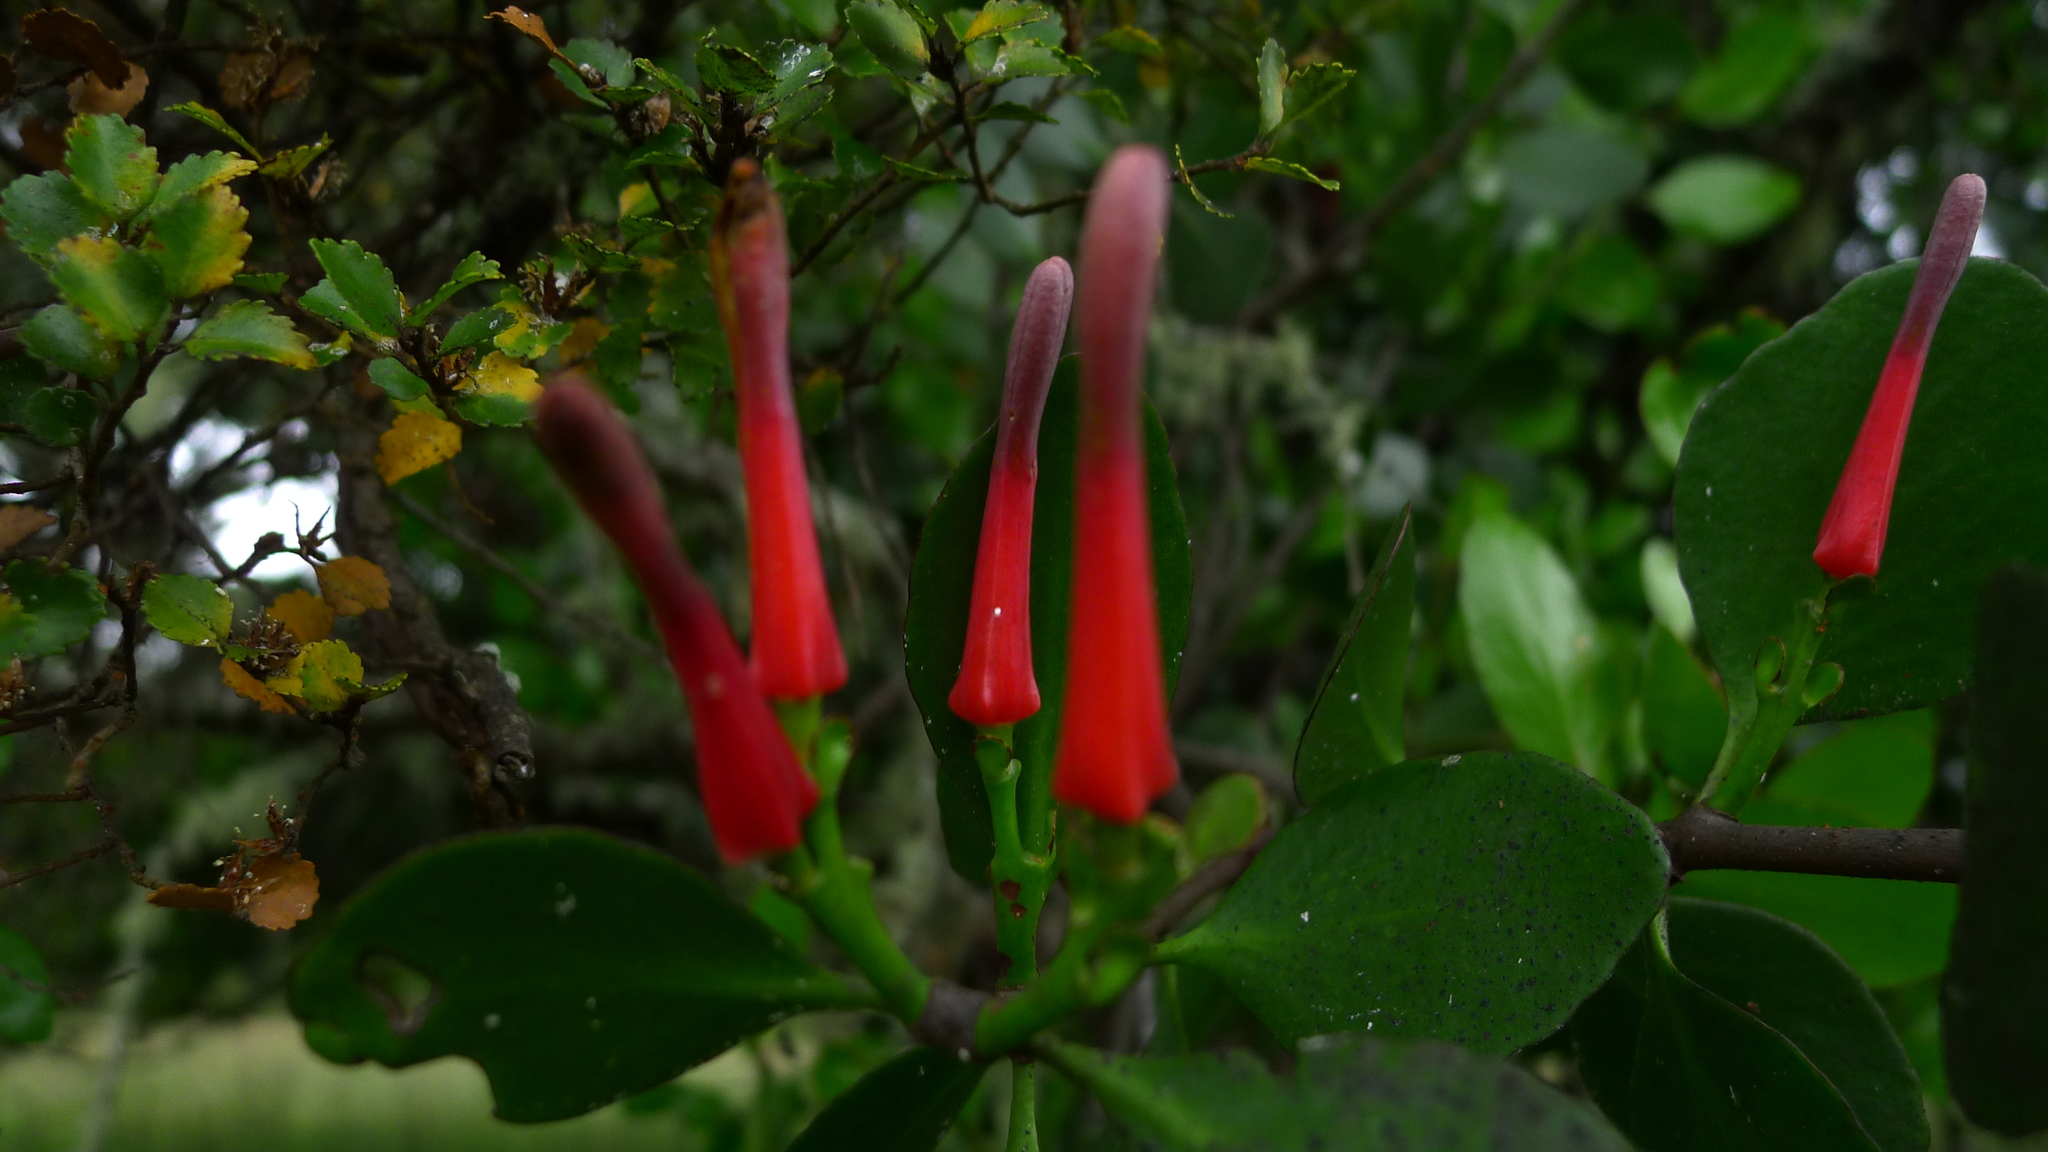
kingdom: Plantae
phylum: Tracheophyta
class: Magnoliopsida
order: Santalales
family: Loranthaceae
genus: Peraxilla
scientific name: Peraxilla colensoi
